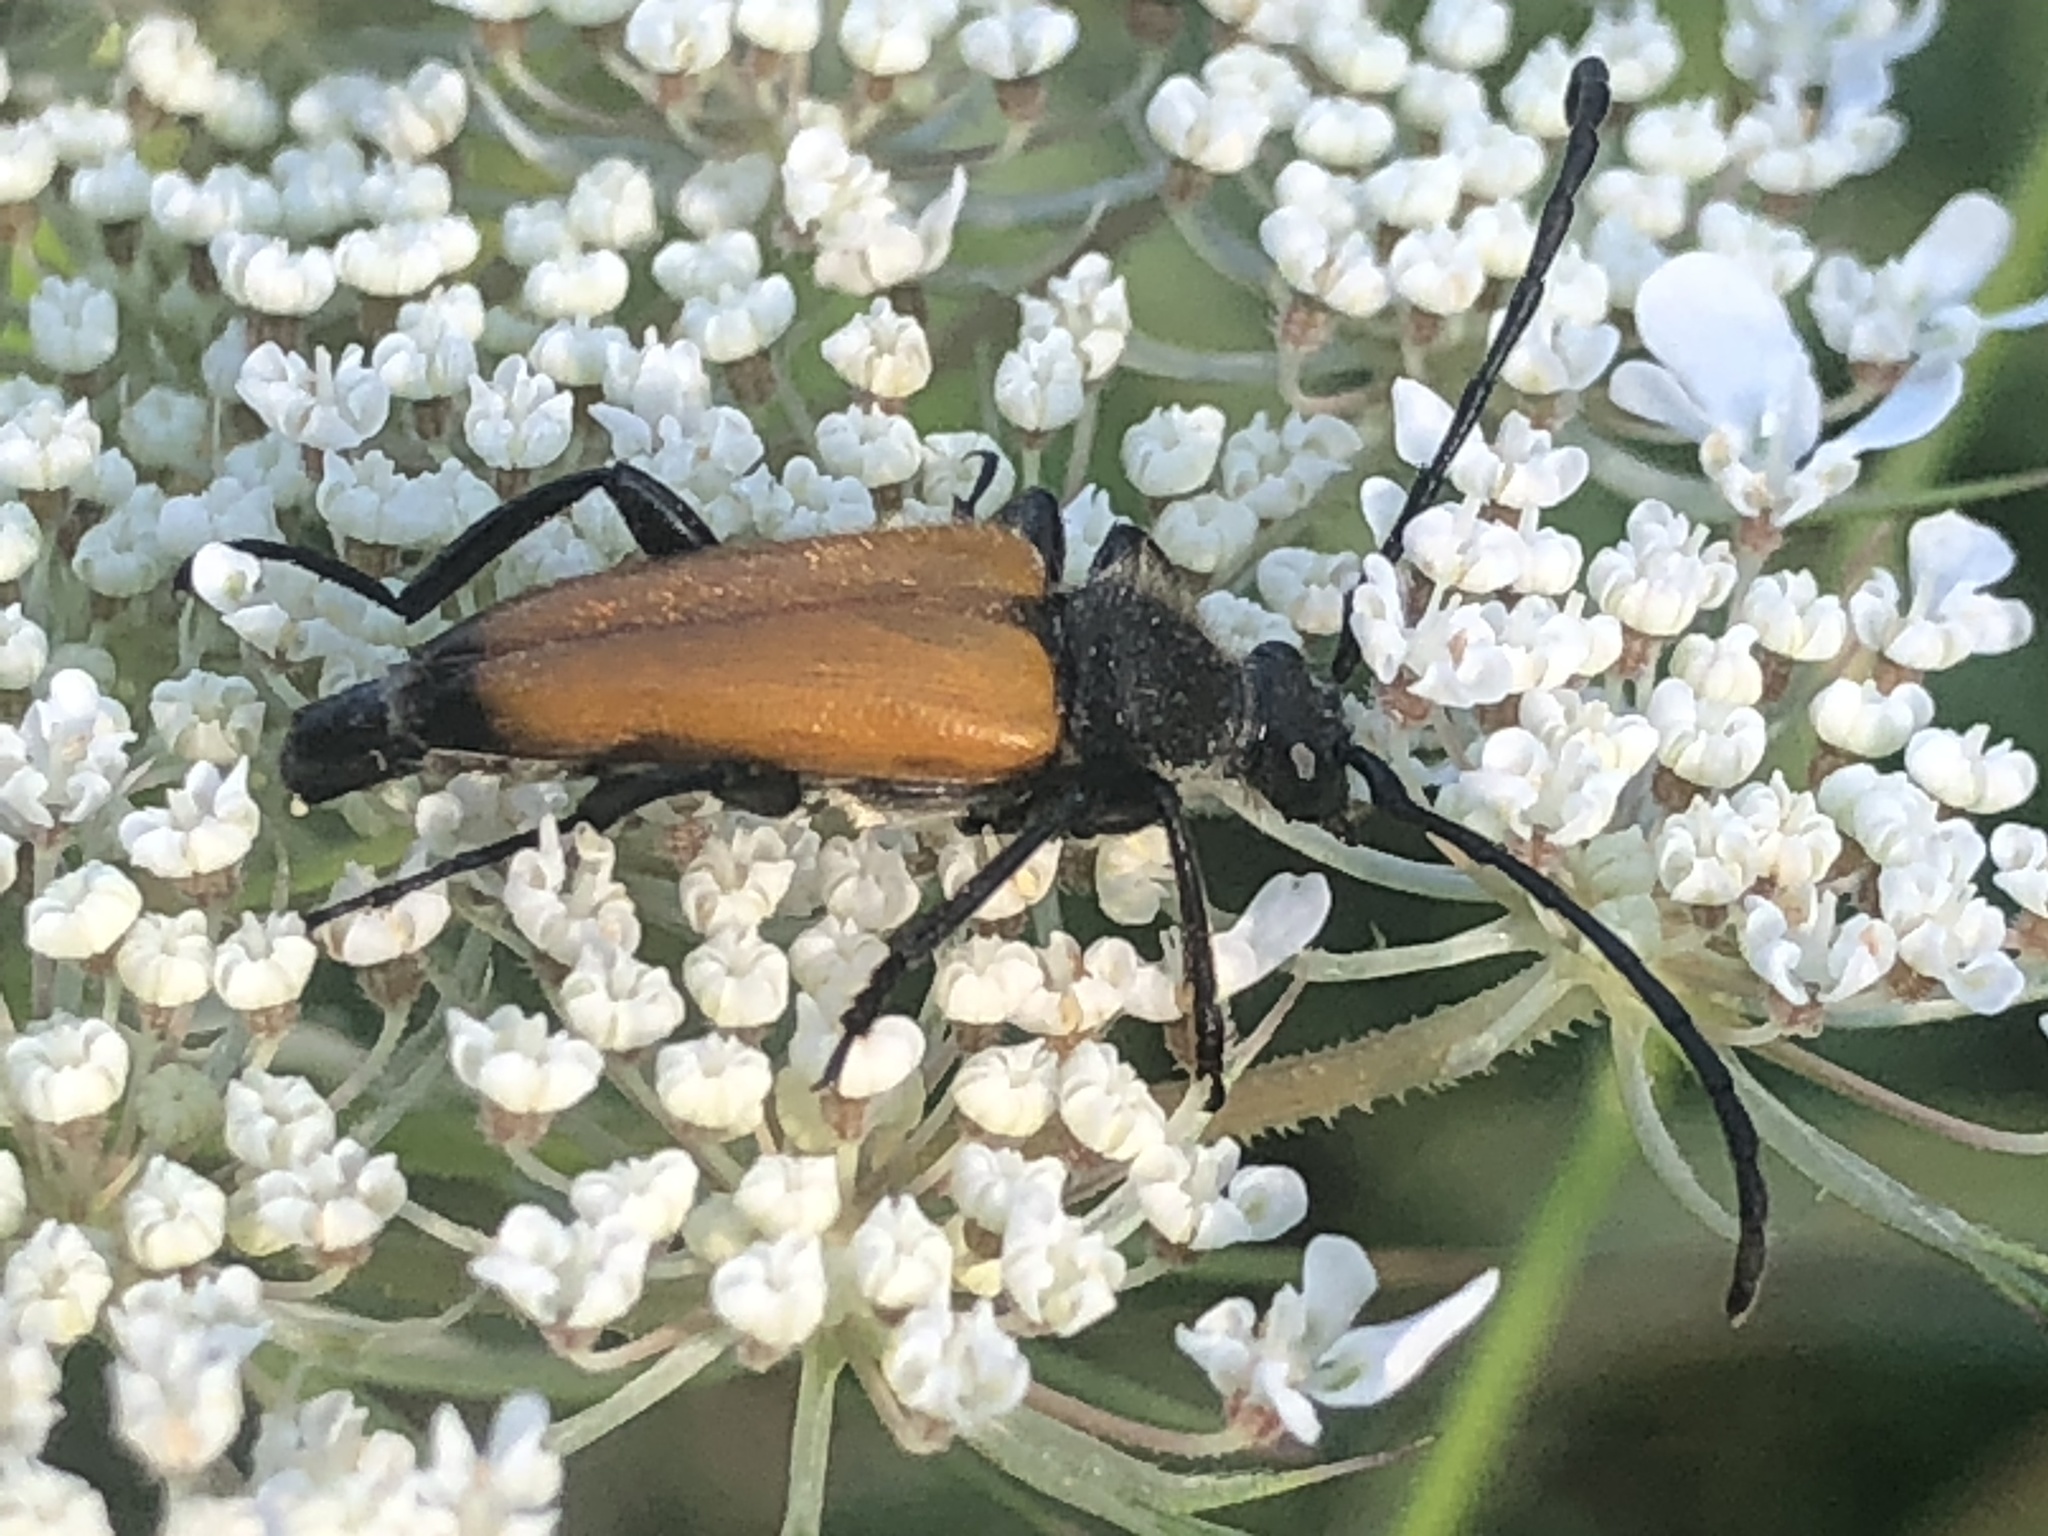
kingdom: Animalia
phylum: Arthropoda
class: Insecta
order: Coleoptera
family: Cerambycidae
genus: Paracorymbia
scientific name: Paracorymbia fulva
